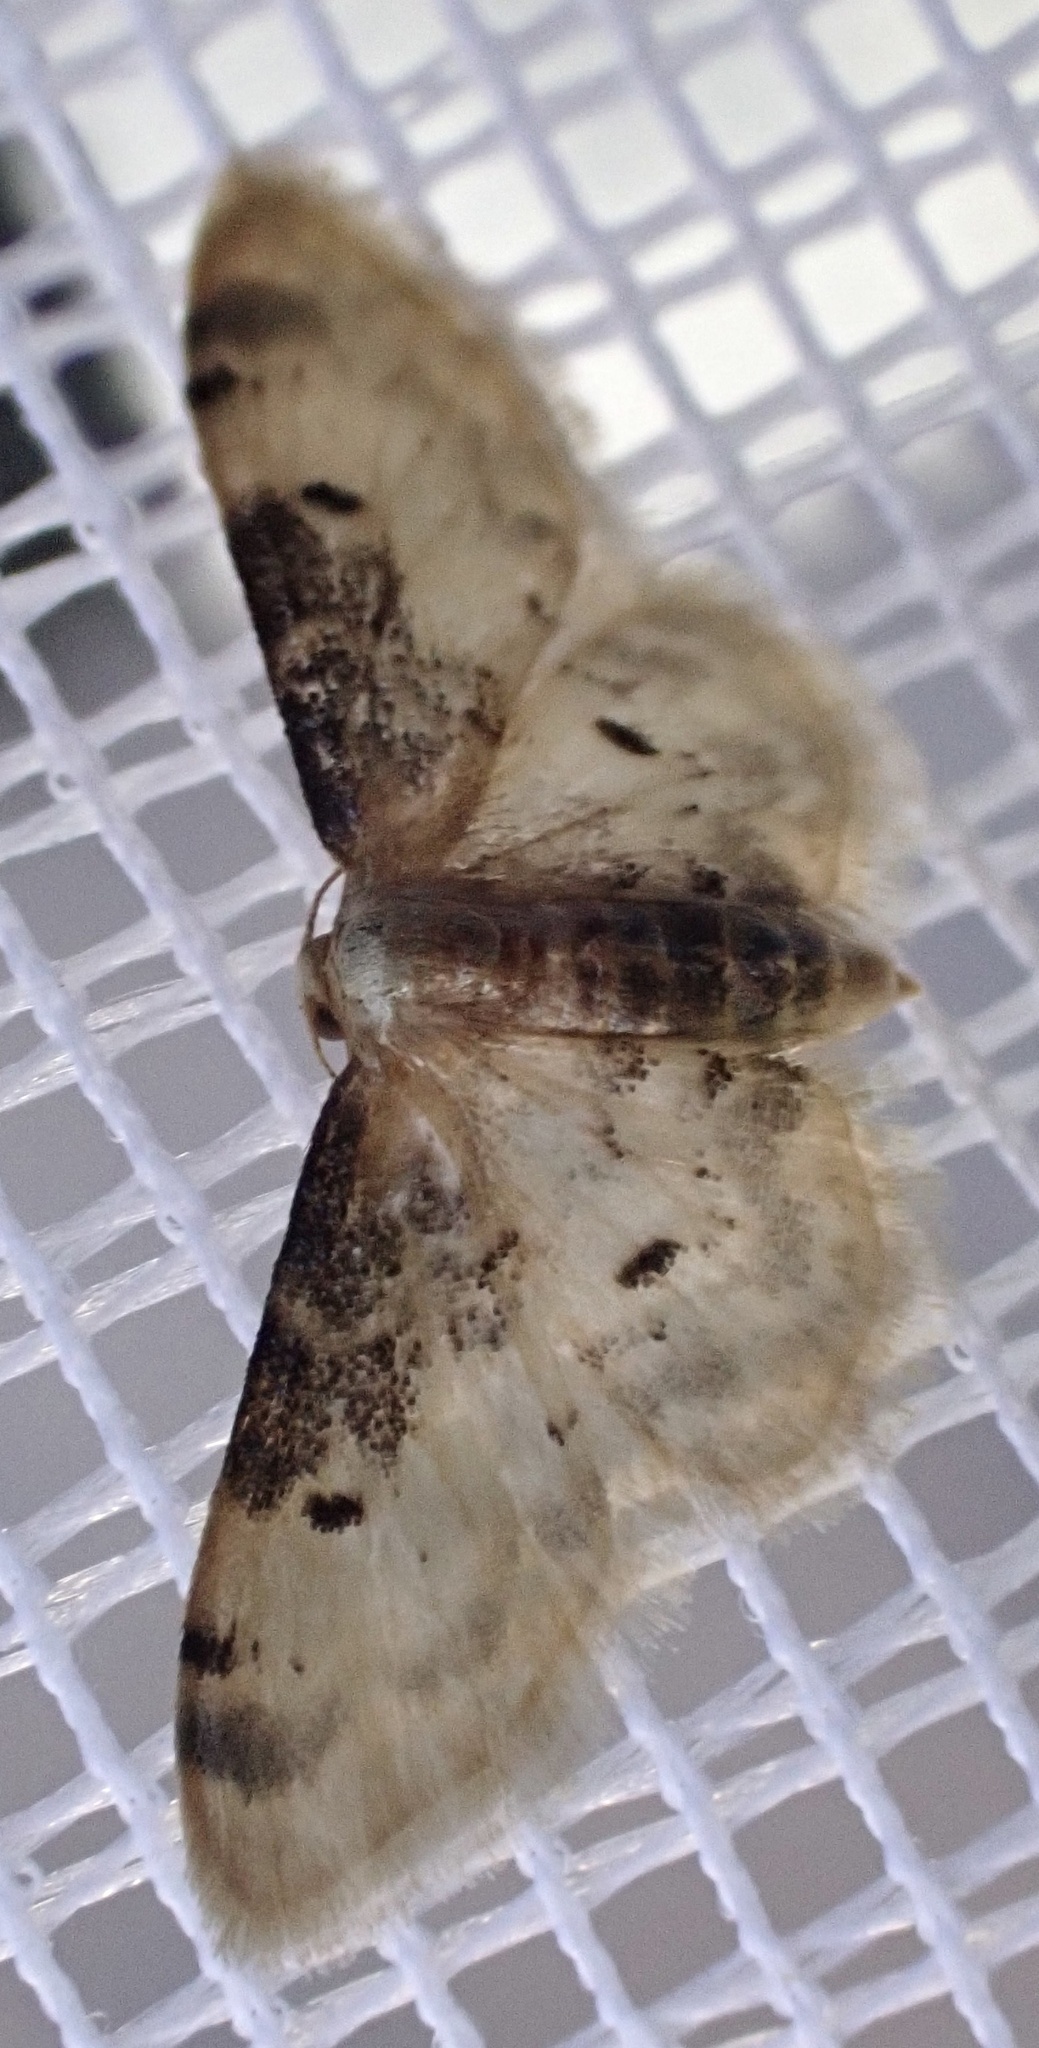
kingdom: Animalia
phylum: Arthropoda
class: Insecta
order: Lepidoptera
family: Geometridae
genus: Idaea
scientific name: Idaea filicata
